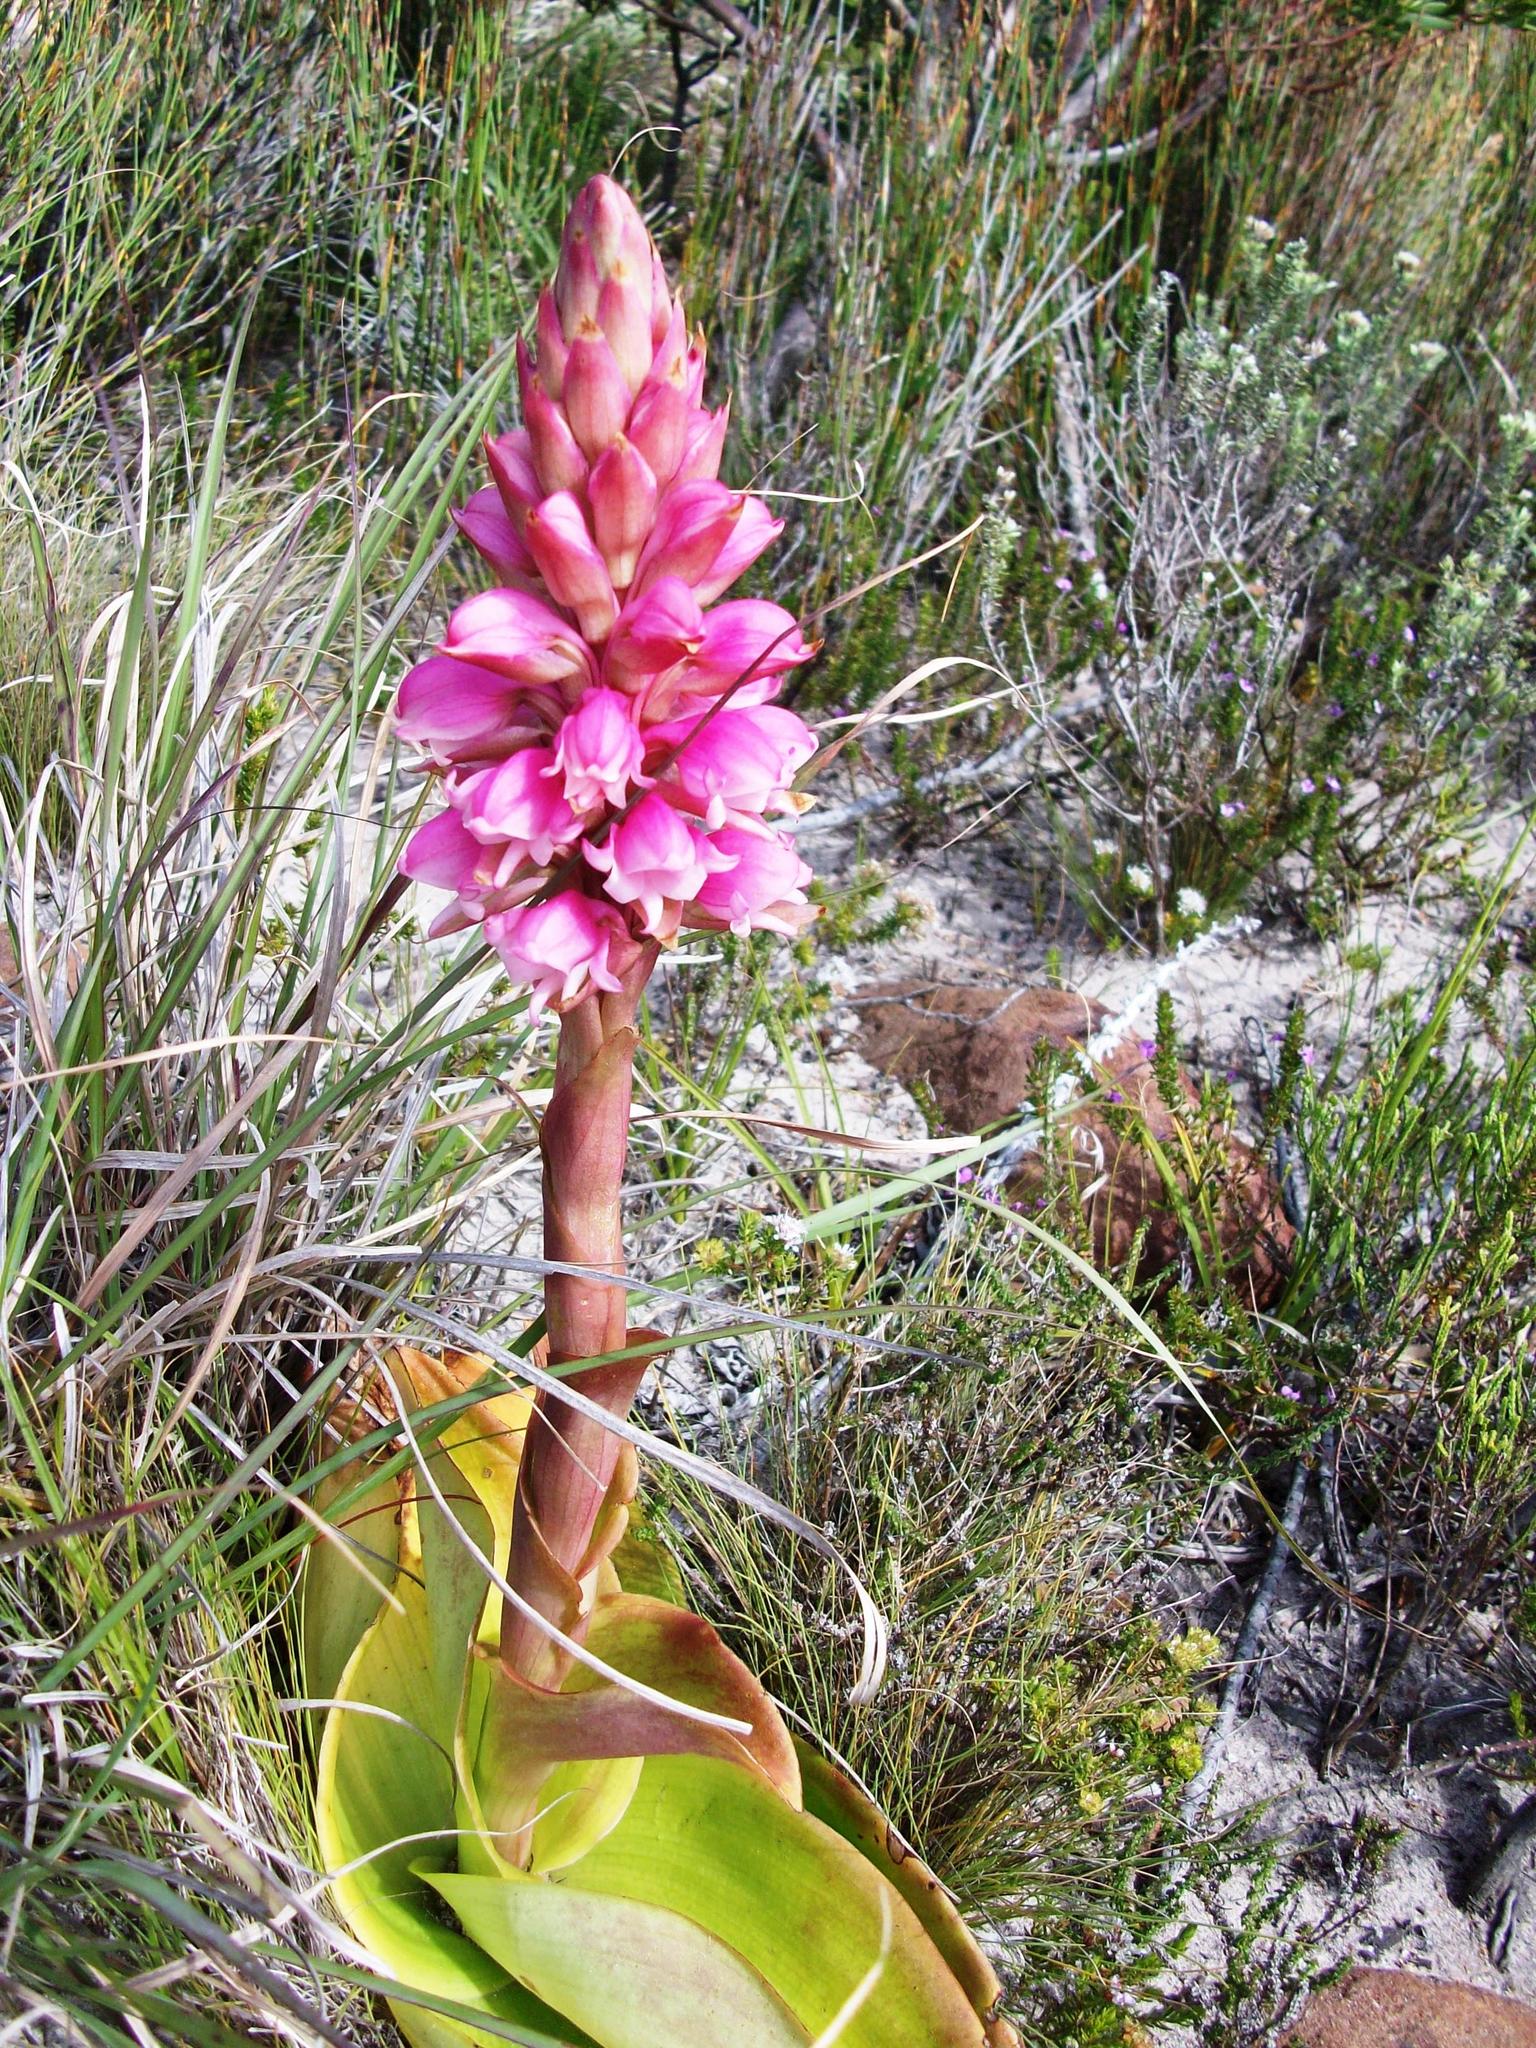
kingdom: Plantae
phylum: Tracheophyta
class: Liliopsida
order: Asparagales
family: Orchidaceae
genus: Satyrium
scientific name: Satyrium carneum
